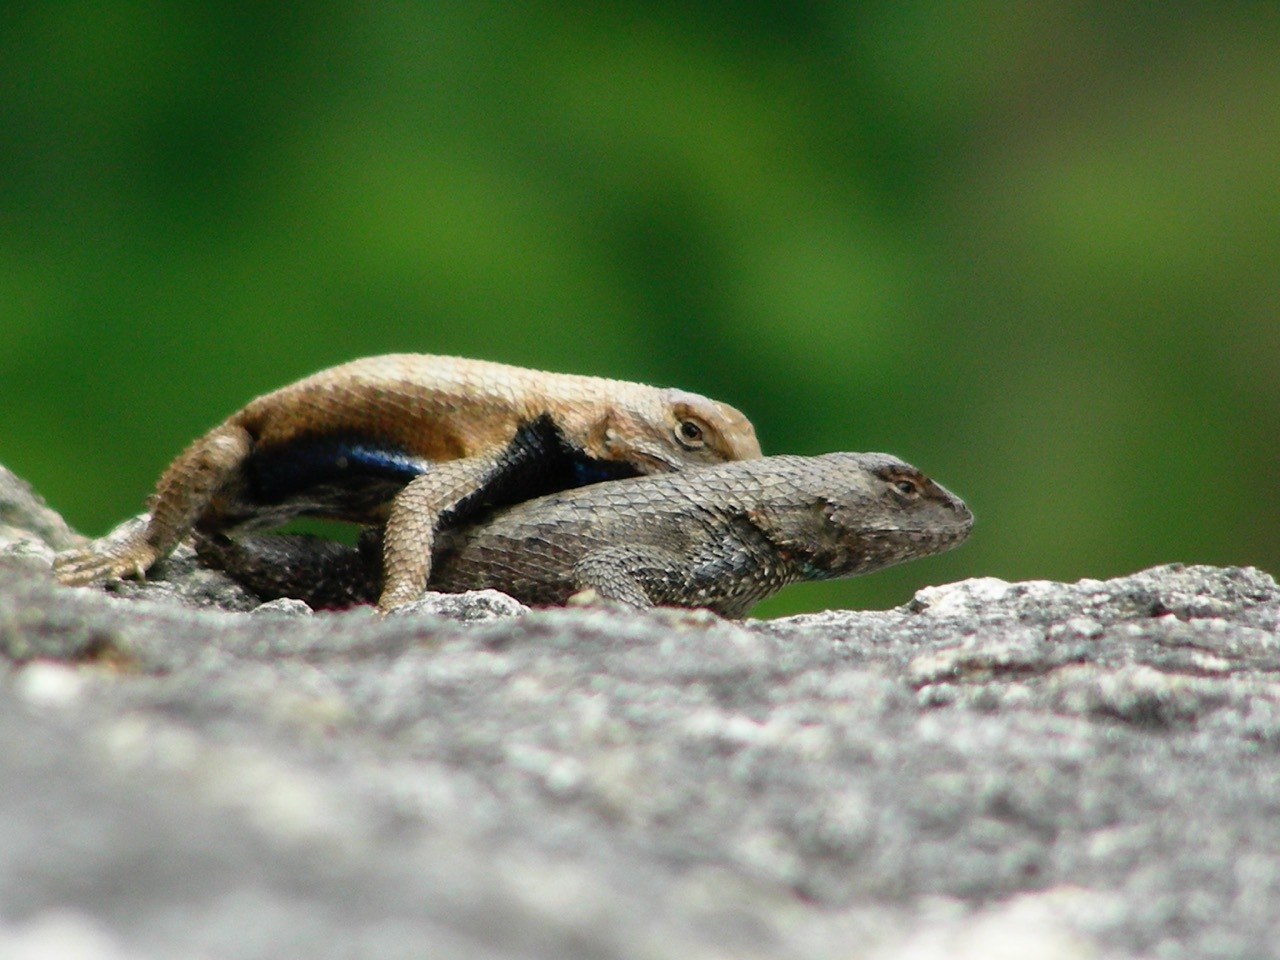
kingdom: Animalia
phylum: Chordata
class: Squamata
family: Phrynosomatidae
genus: Sceloporus
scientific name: Sceloporus undulatus
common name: Eastern fence lizard
